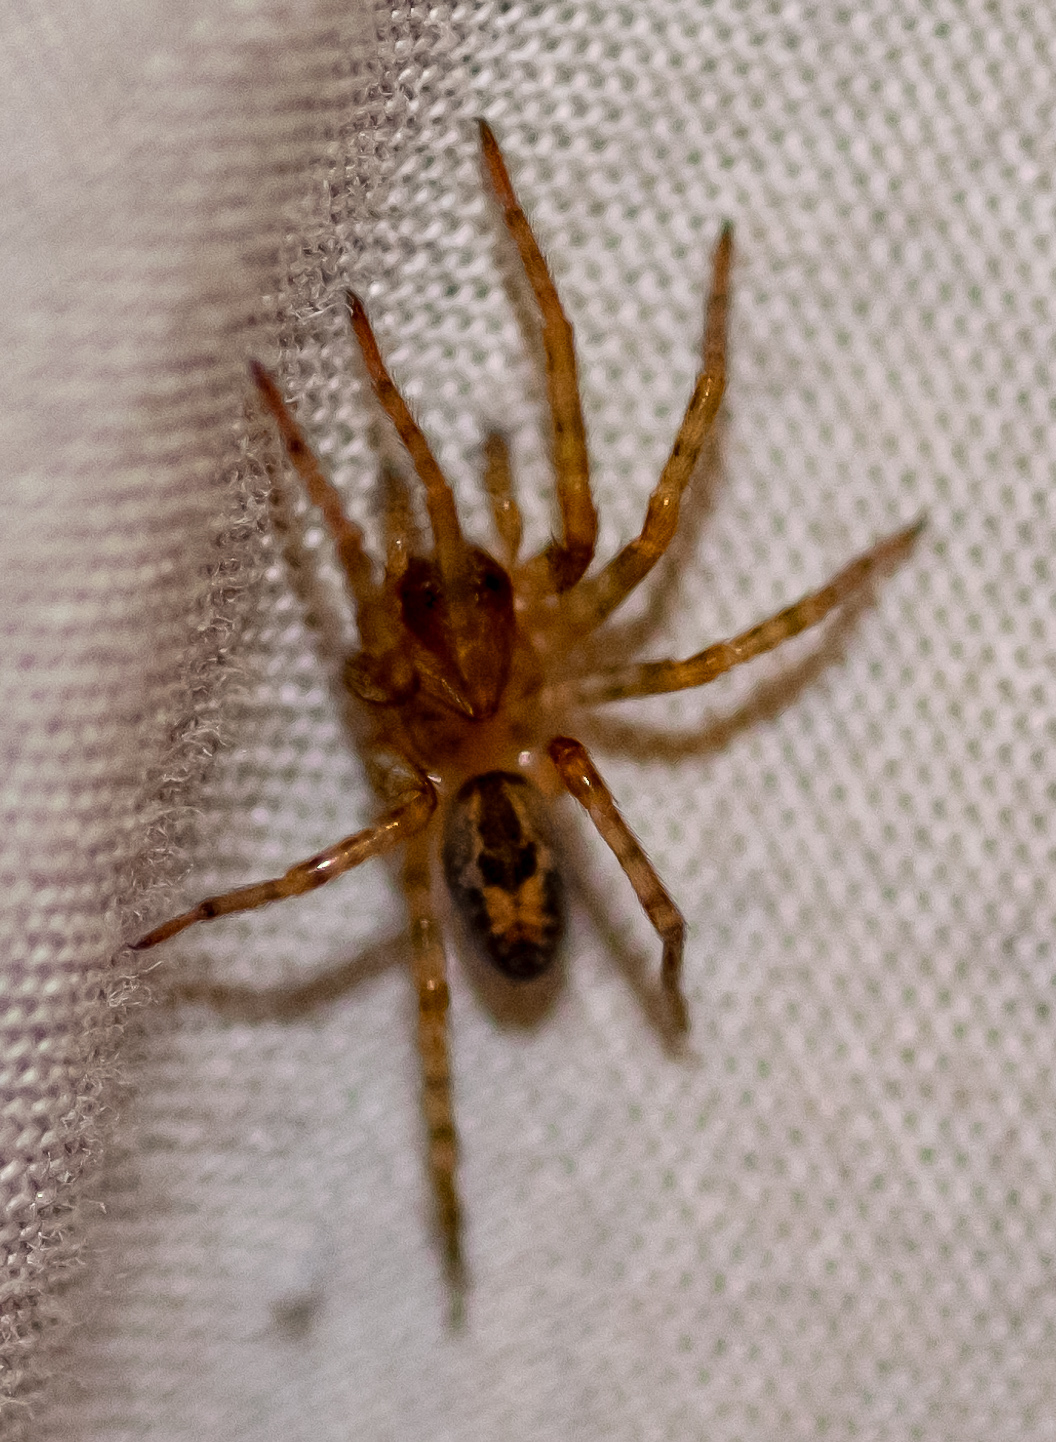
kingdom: Animalia
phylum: Arthropoda
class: Arachnida
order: Araneae
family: Amaurobiidae
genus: Amaurobius
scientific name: Amaurobius fenestralis
